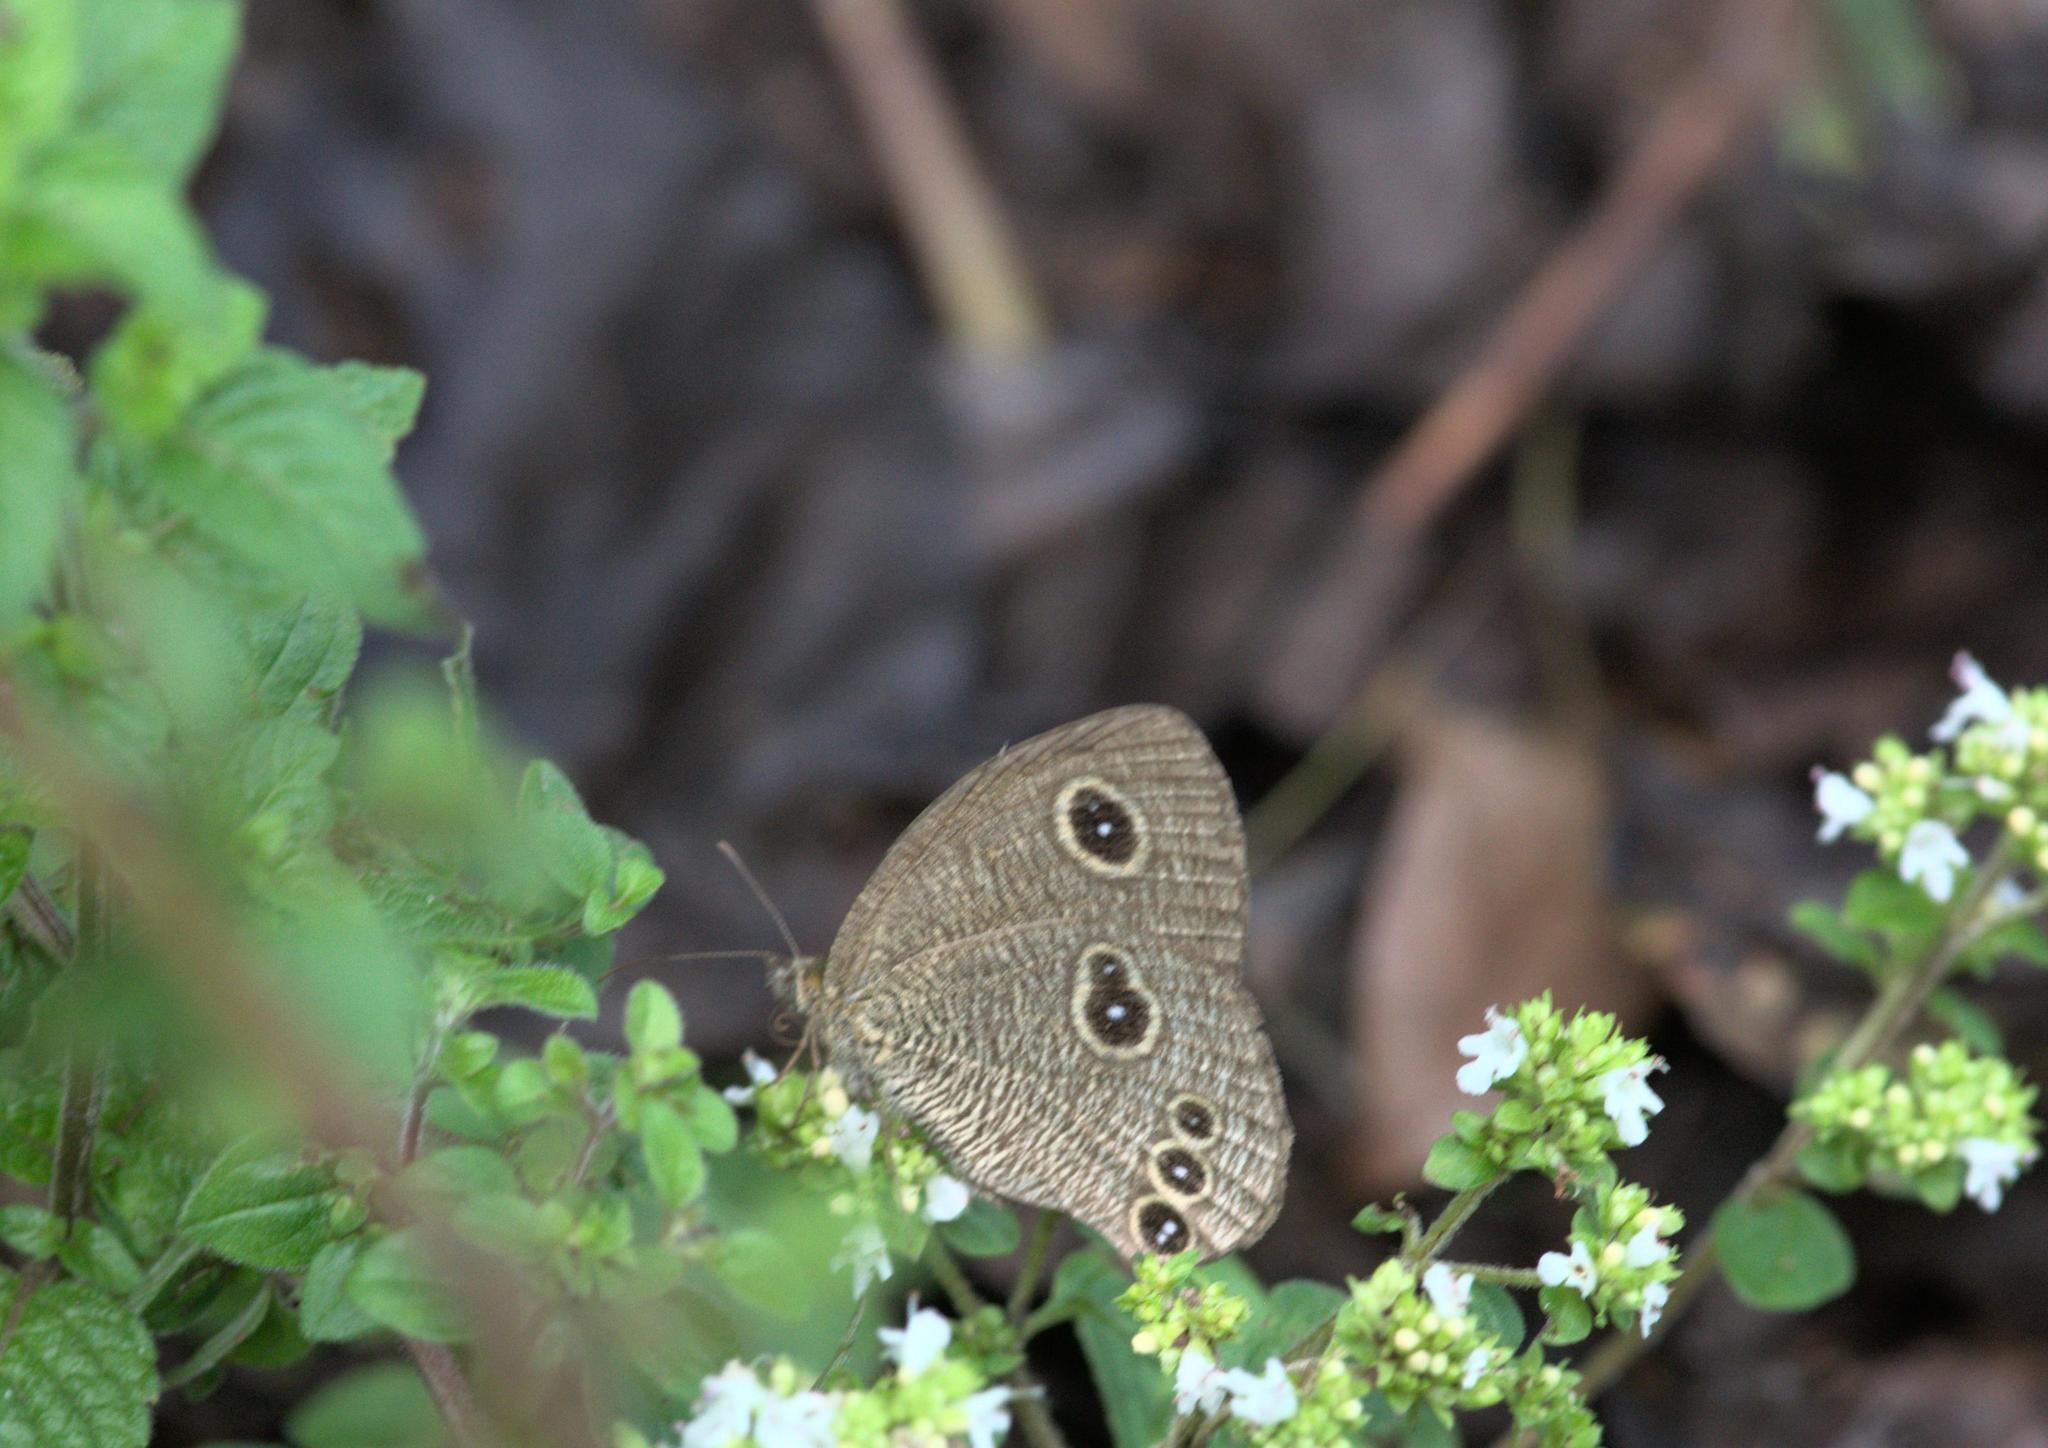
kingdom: Animalia
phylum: Arthropoda
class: Insecta
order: Lepidoptera
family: Nymphalidae
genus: Ypthima
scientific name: Ypthima nikaea
